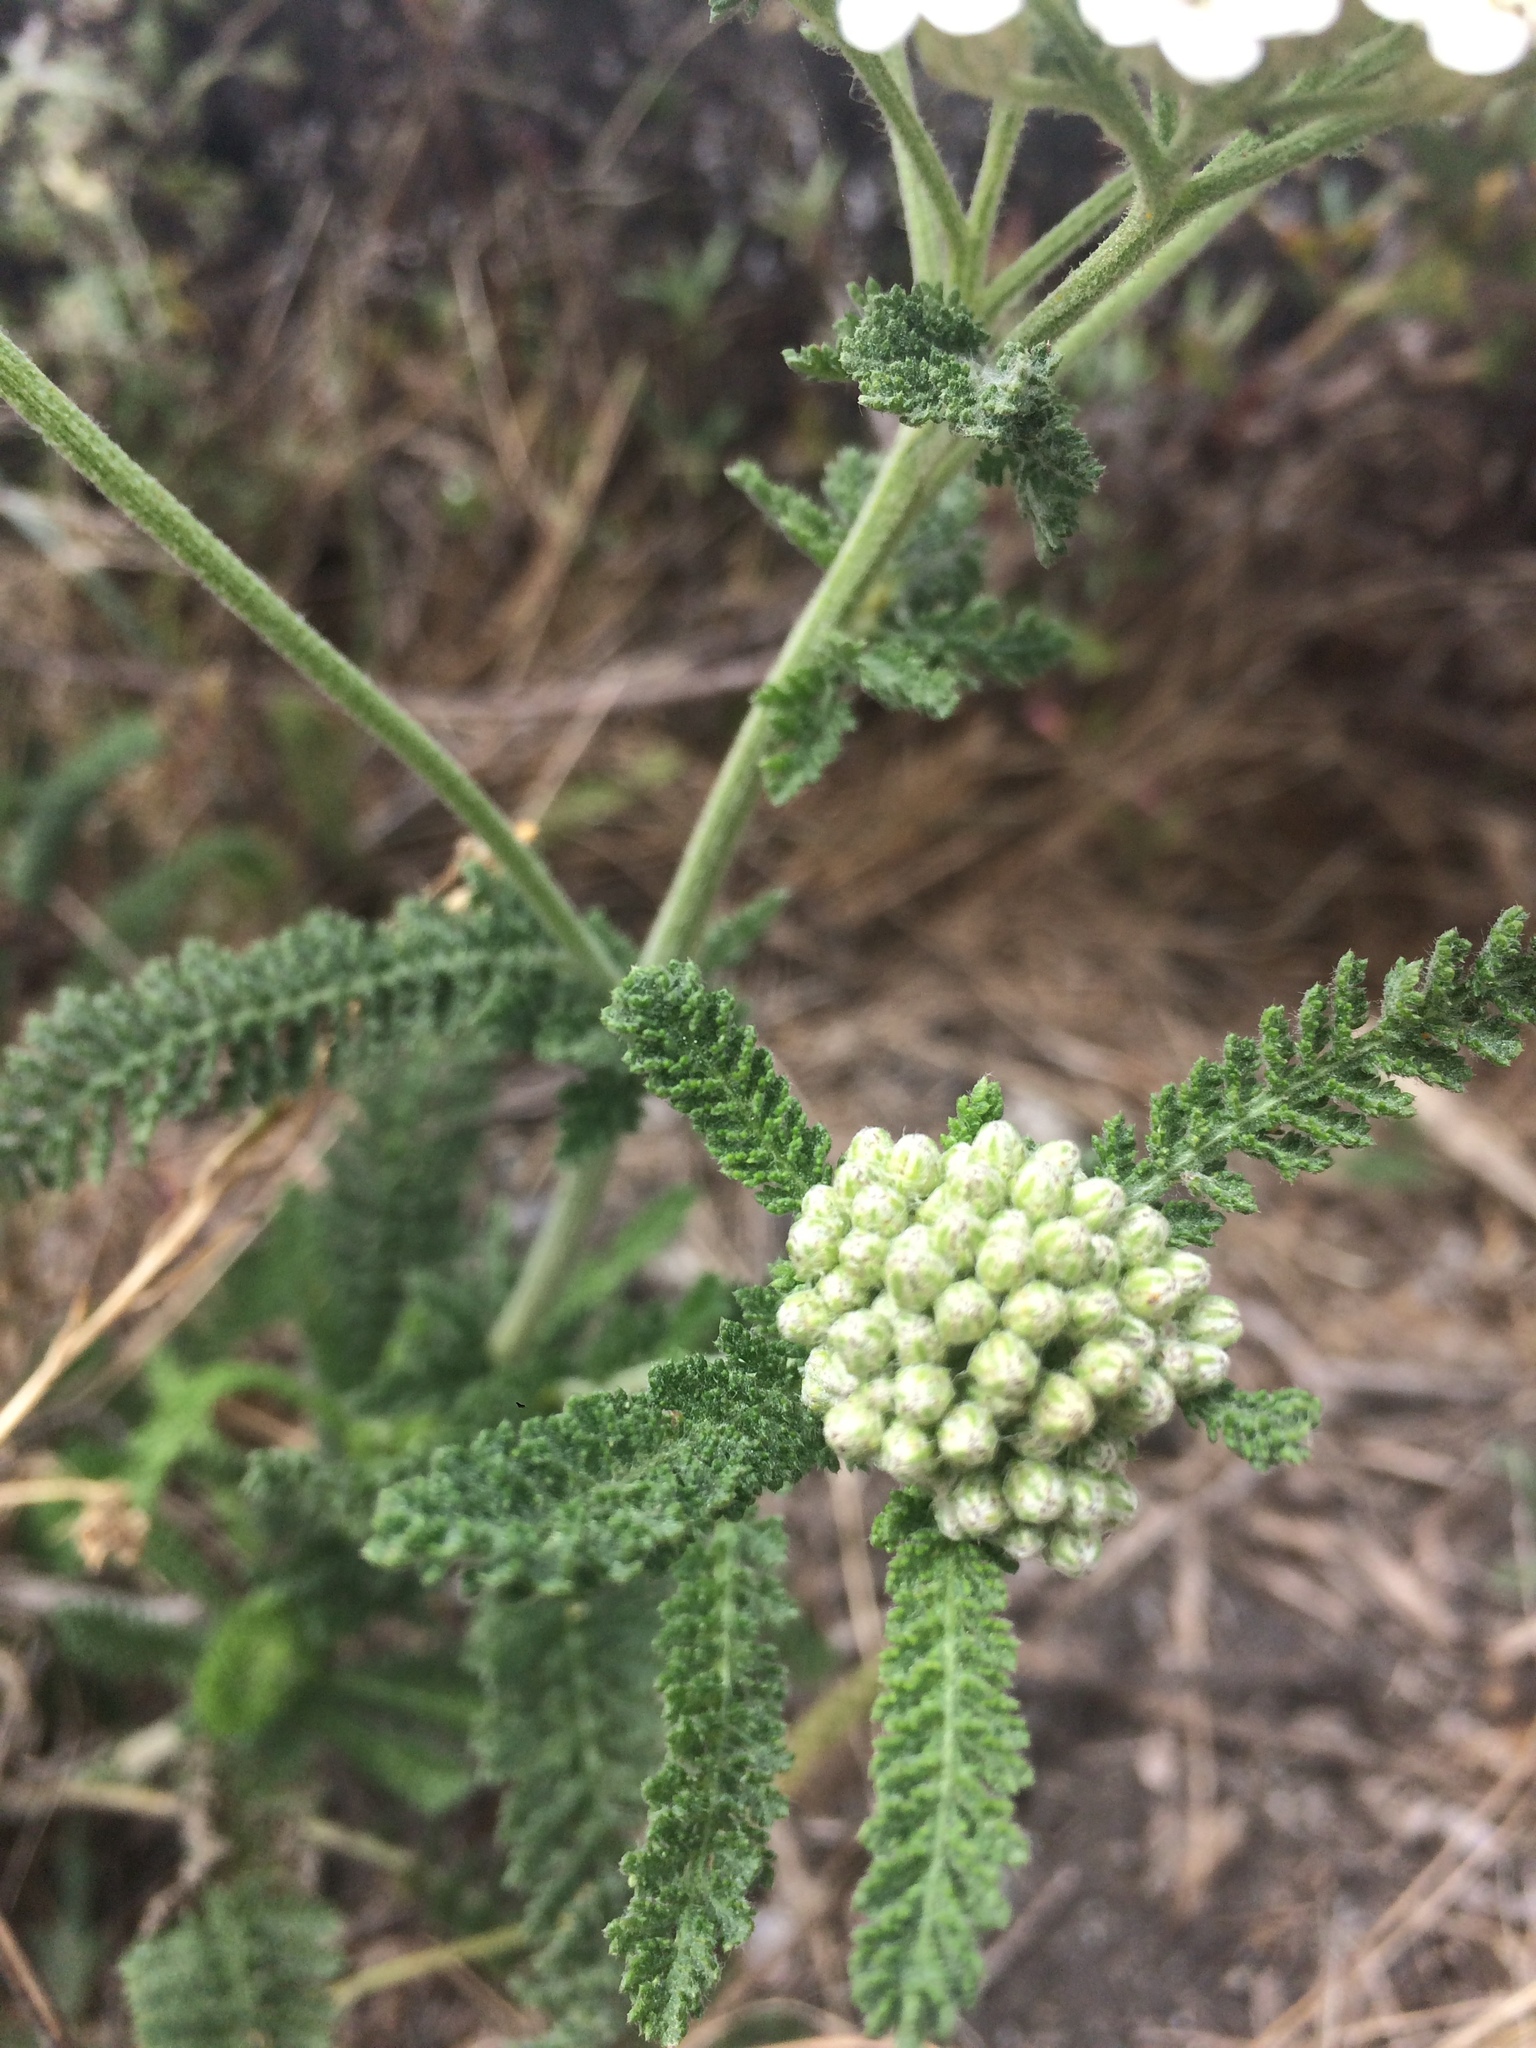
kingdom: Plantae
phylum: Tracheophyta
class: Magnoliopsida
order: Asterales
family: Asteraceae
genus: Achillea
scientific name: Achillea millefolium
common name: Yarrow
